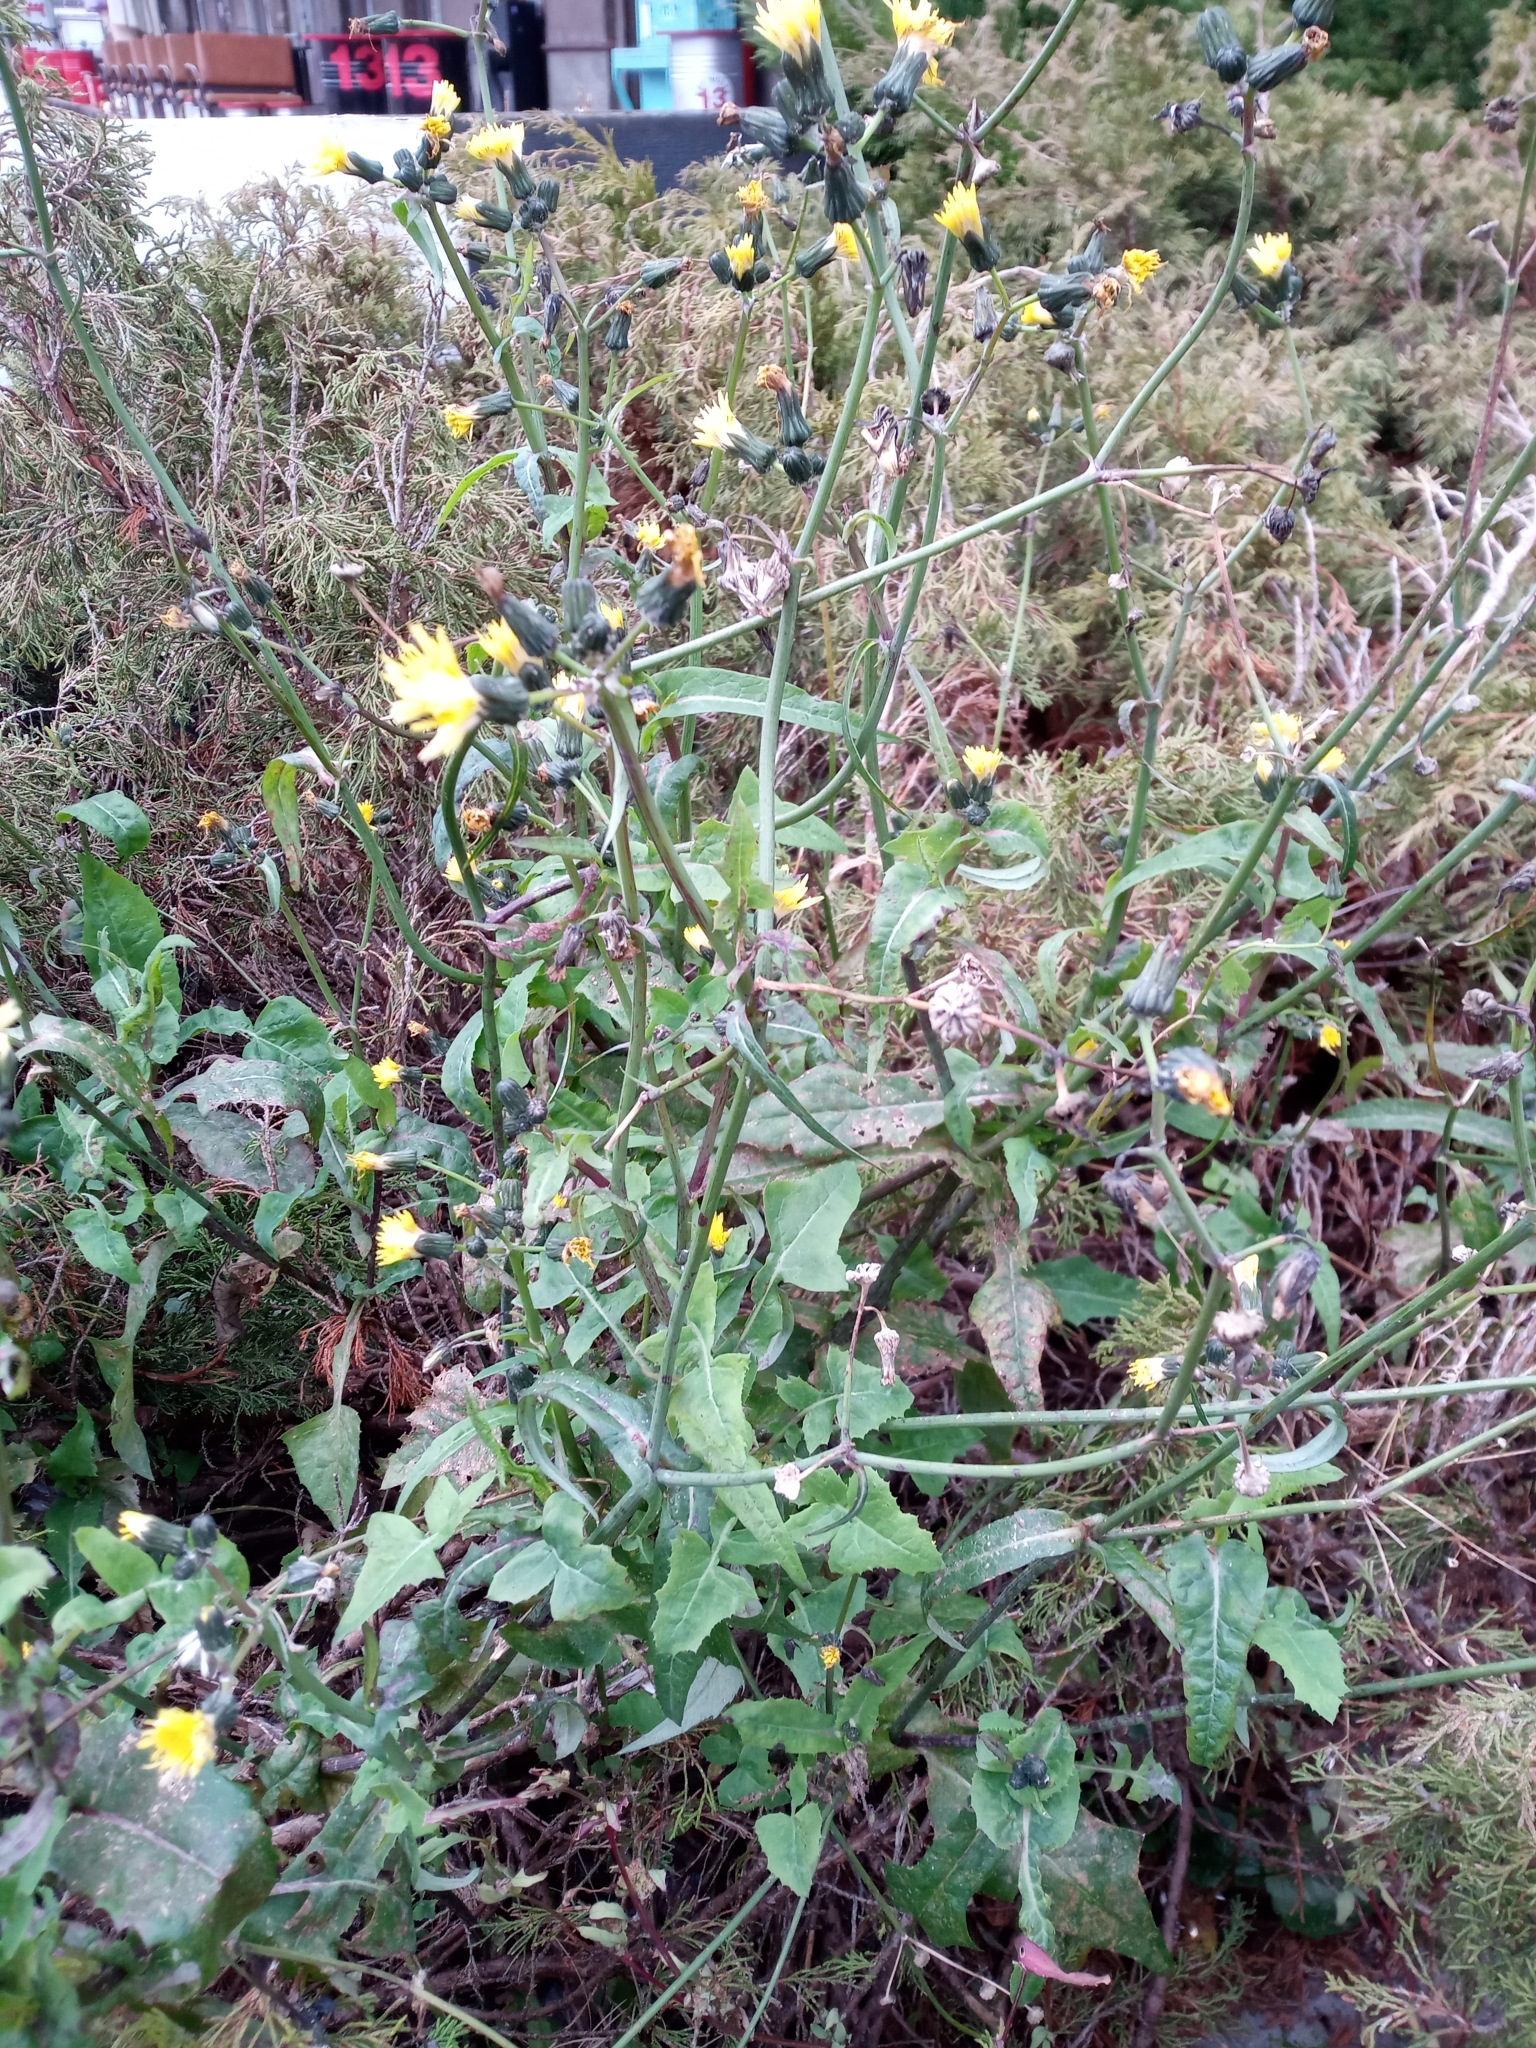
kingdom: Plantae
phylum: Tracheophyta
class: Magnoliopsida
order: Asterales
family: Asteraceae
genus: Sonchus
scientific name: Sonchus oleraceus
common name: Common sowthistle
